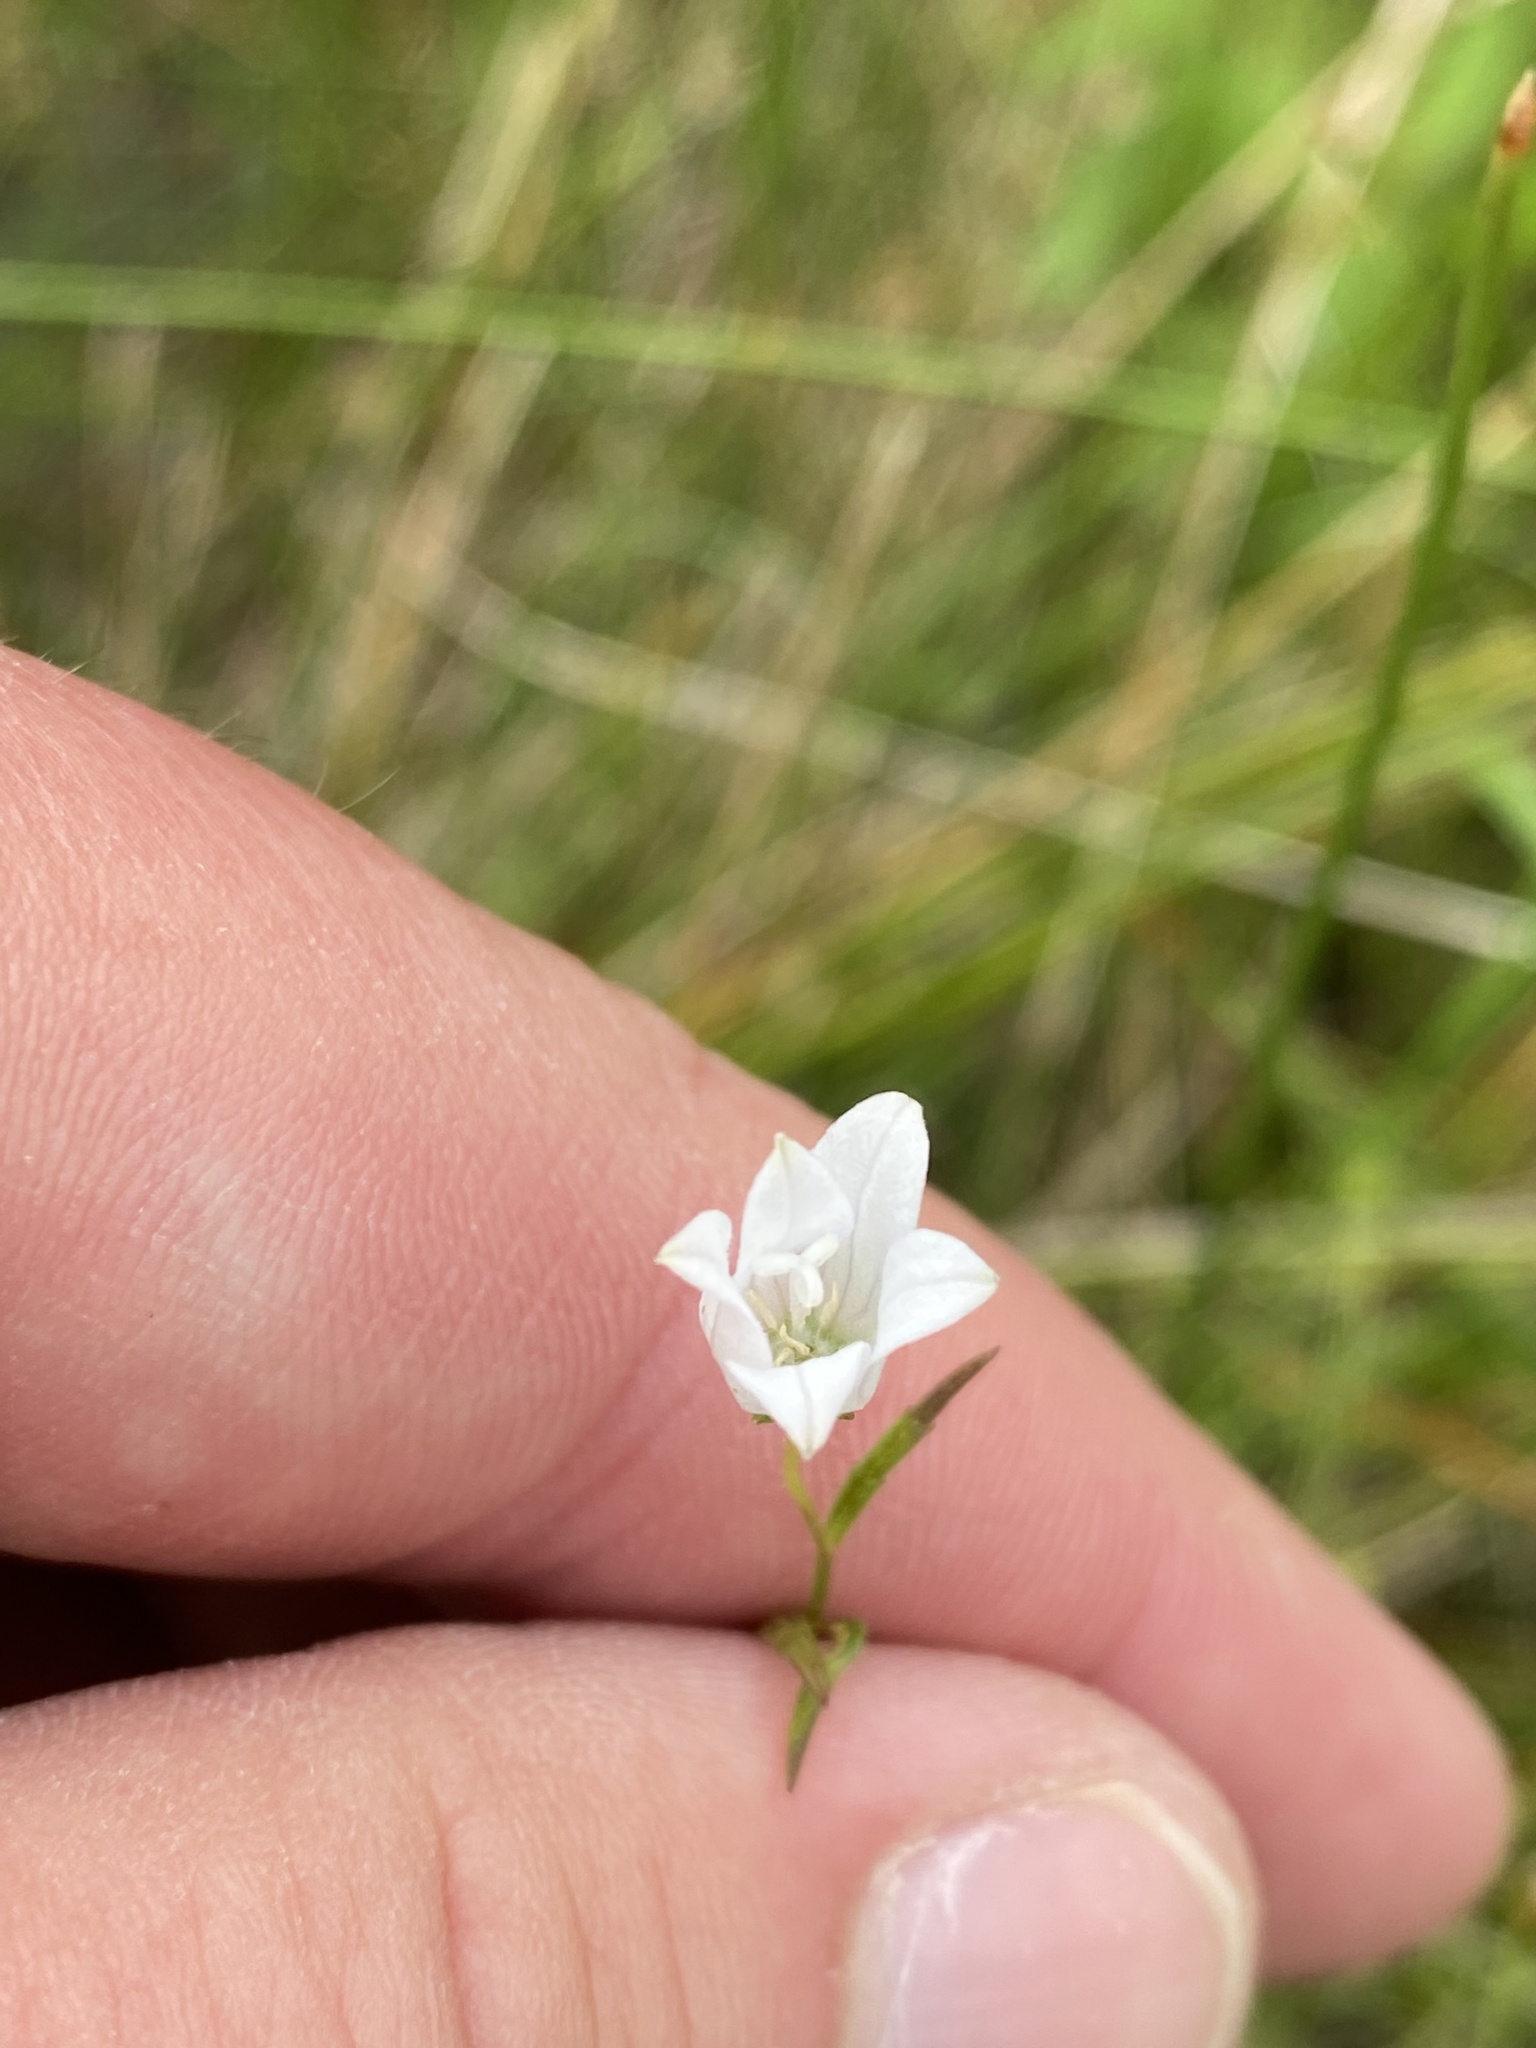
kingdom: Plantae
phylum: Tracheophyta
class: Magnoliopsida
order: Asterales
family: Campanulaceae
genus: Palustricodon
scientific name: Palustricodon aparinoides
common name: Bedstraw bellflower
